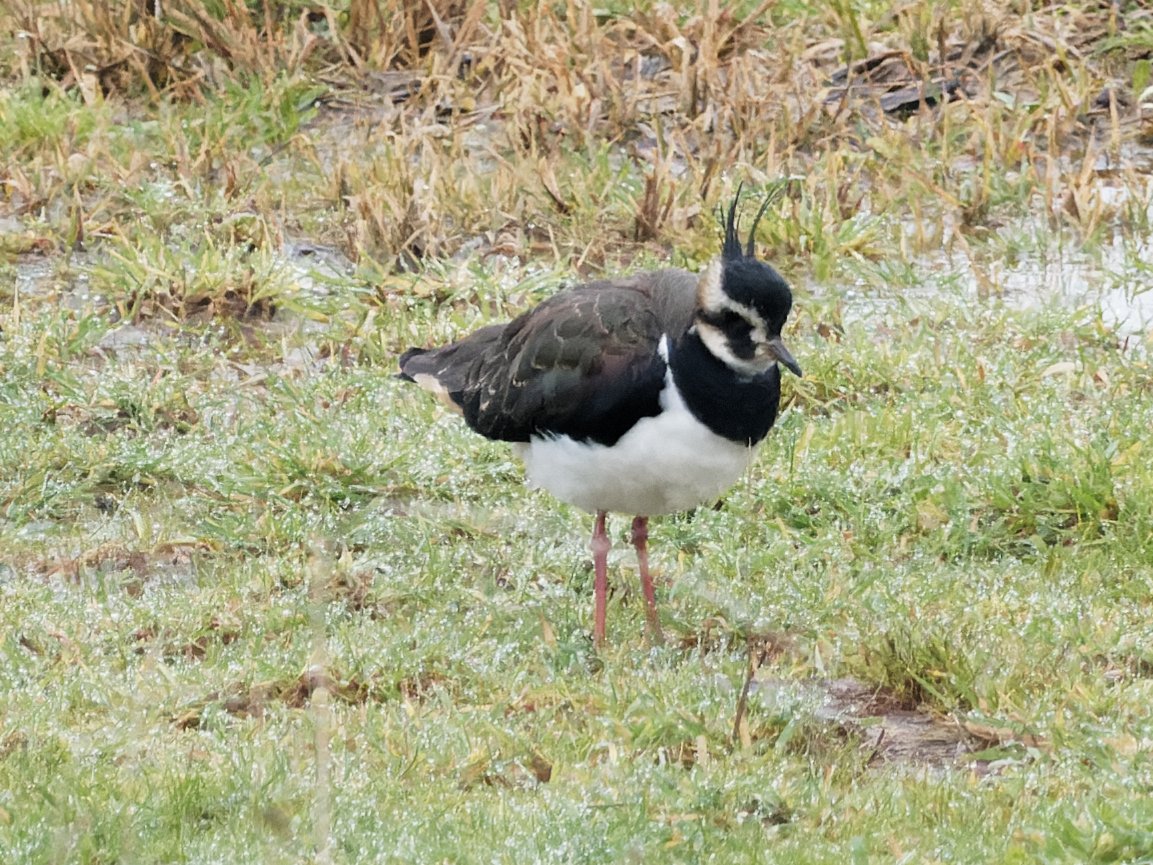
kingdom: Animalia
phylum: Chordata
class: Aves
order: Charadriiformes
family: Charadriidae
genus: Vanellus
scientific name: Vanellus vanellus
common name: Northern lapwing
